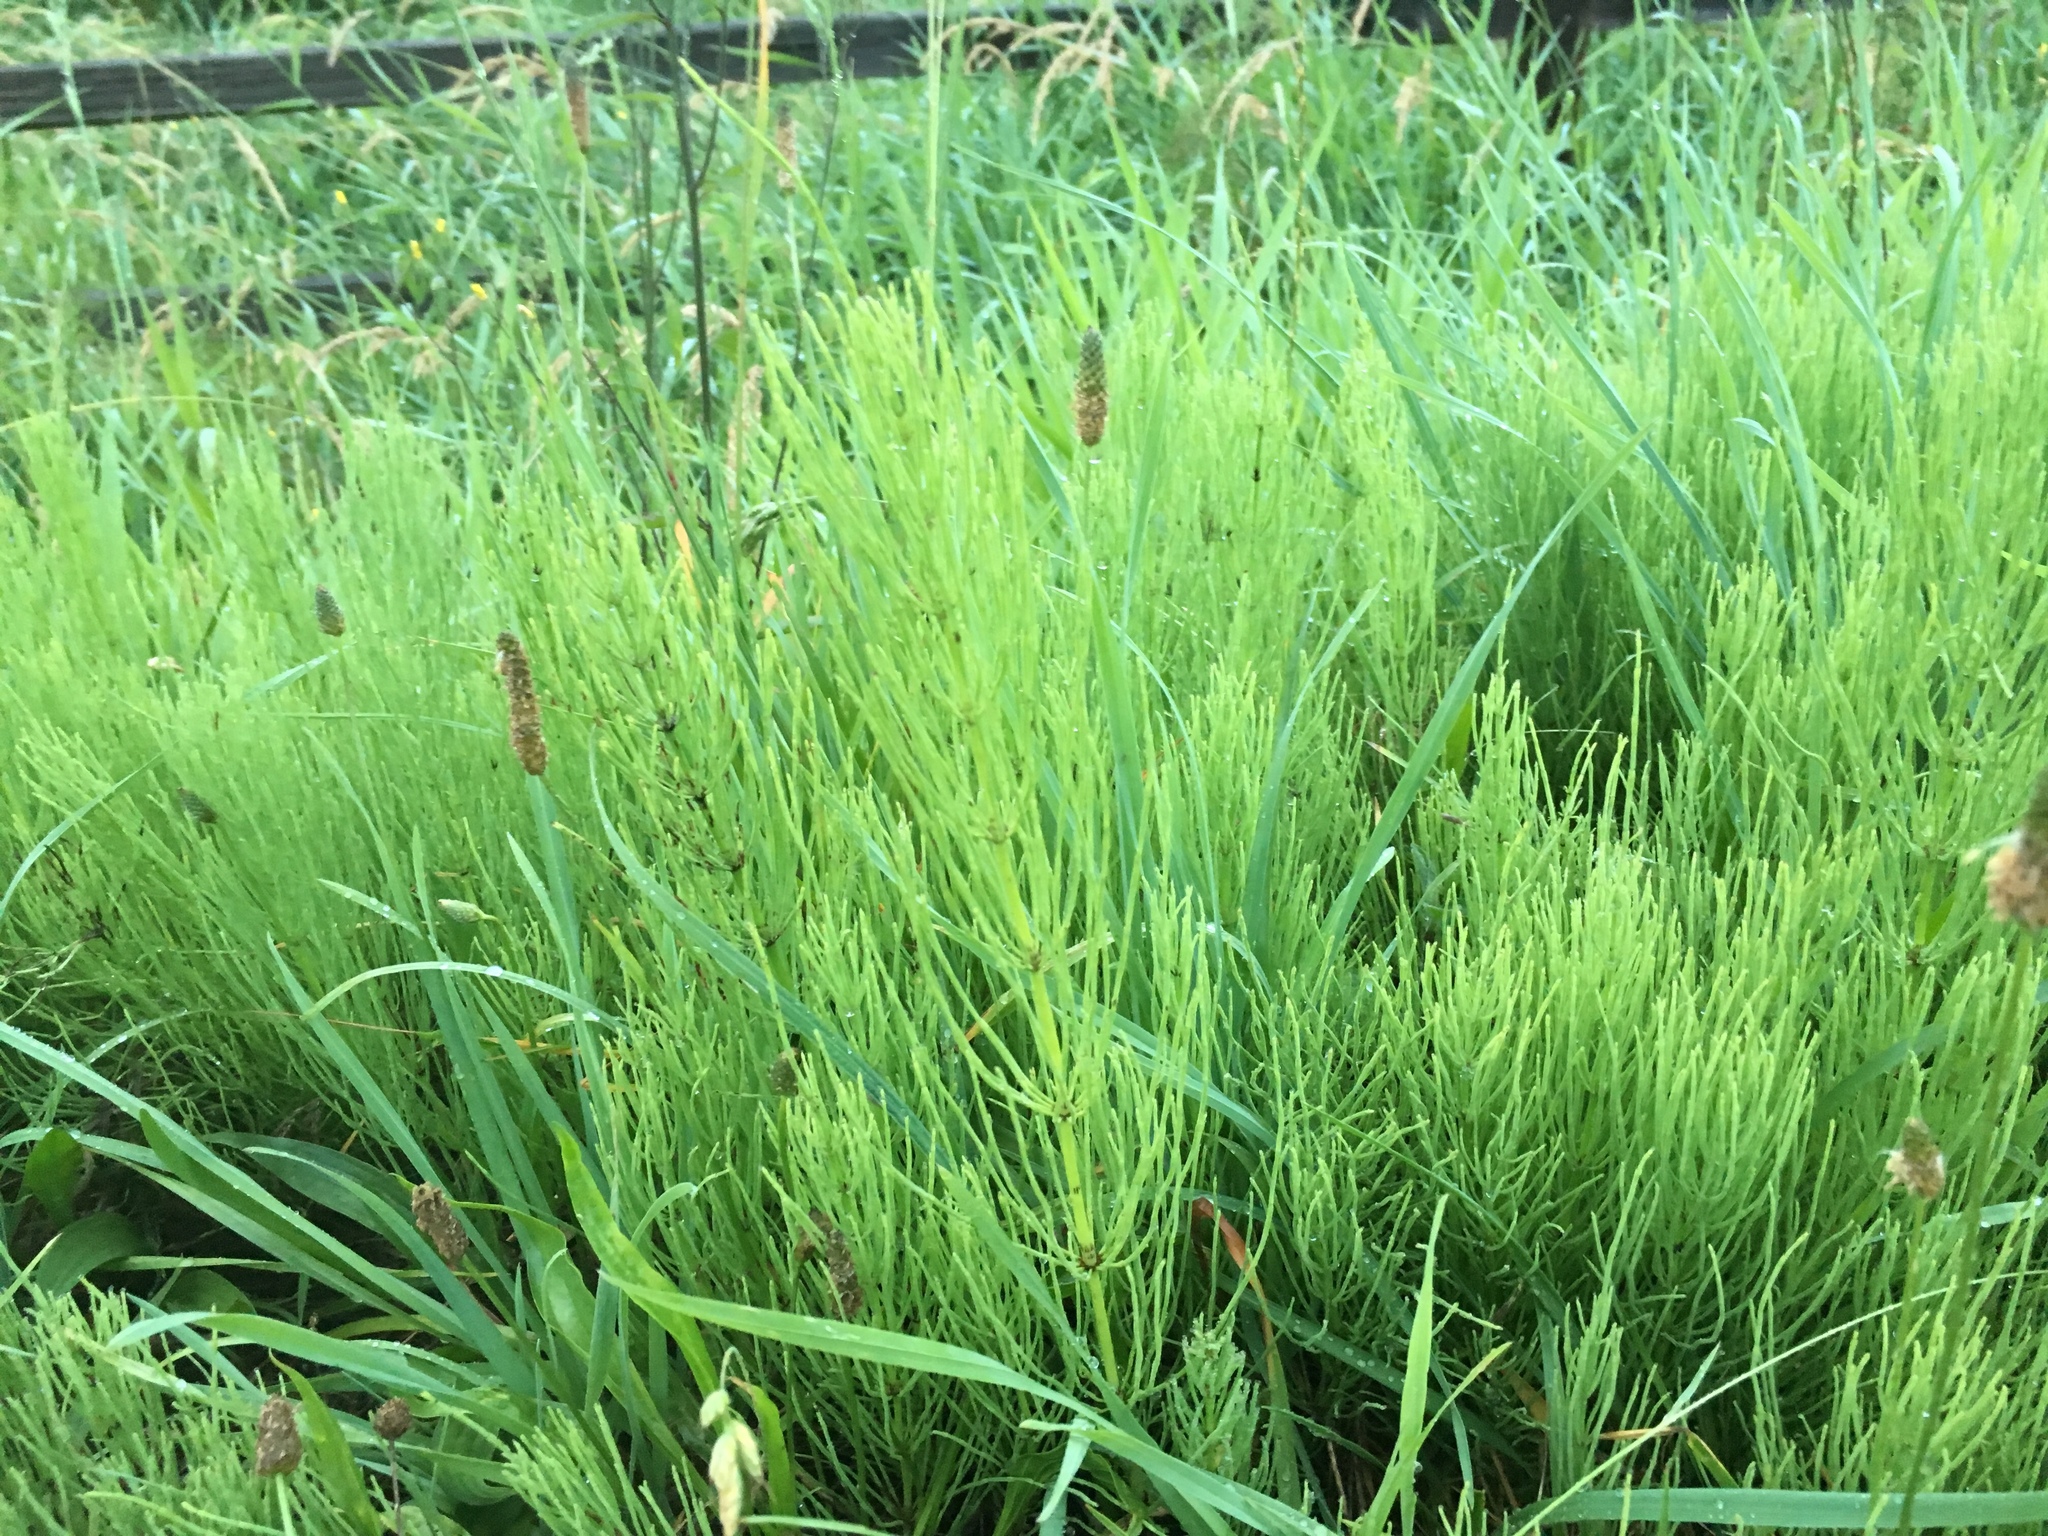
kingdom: Plantae
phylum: Tracheophyta
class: Polypodiopsida
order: Equisetales
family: Equisetaceae
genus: Equisetum
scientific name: Equisetum arvense
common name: Field horsetail
